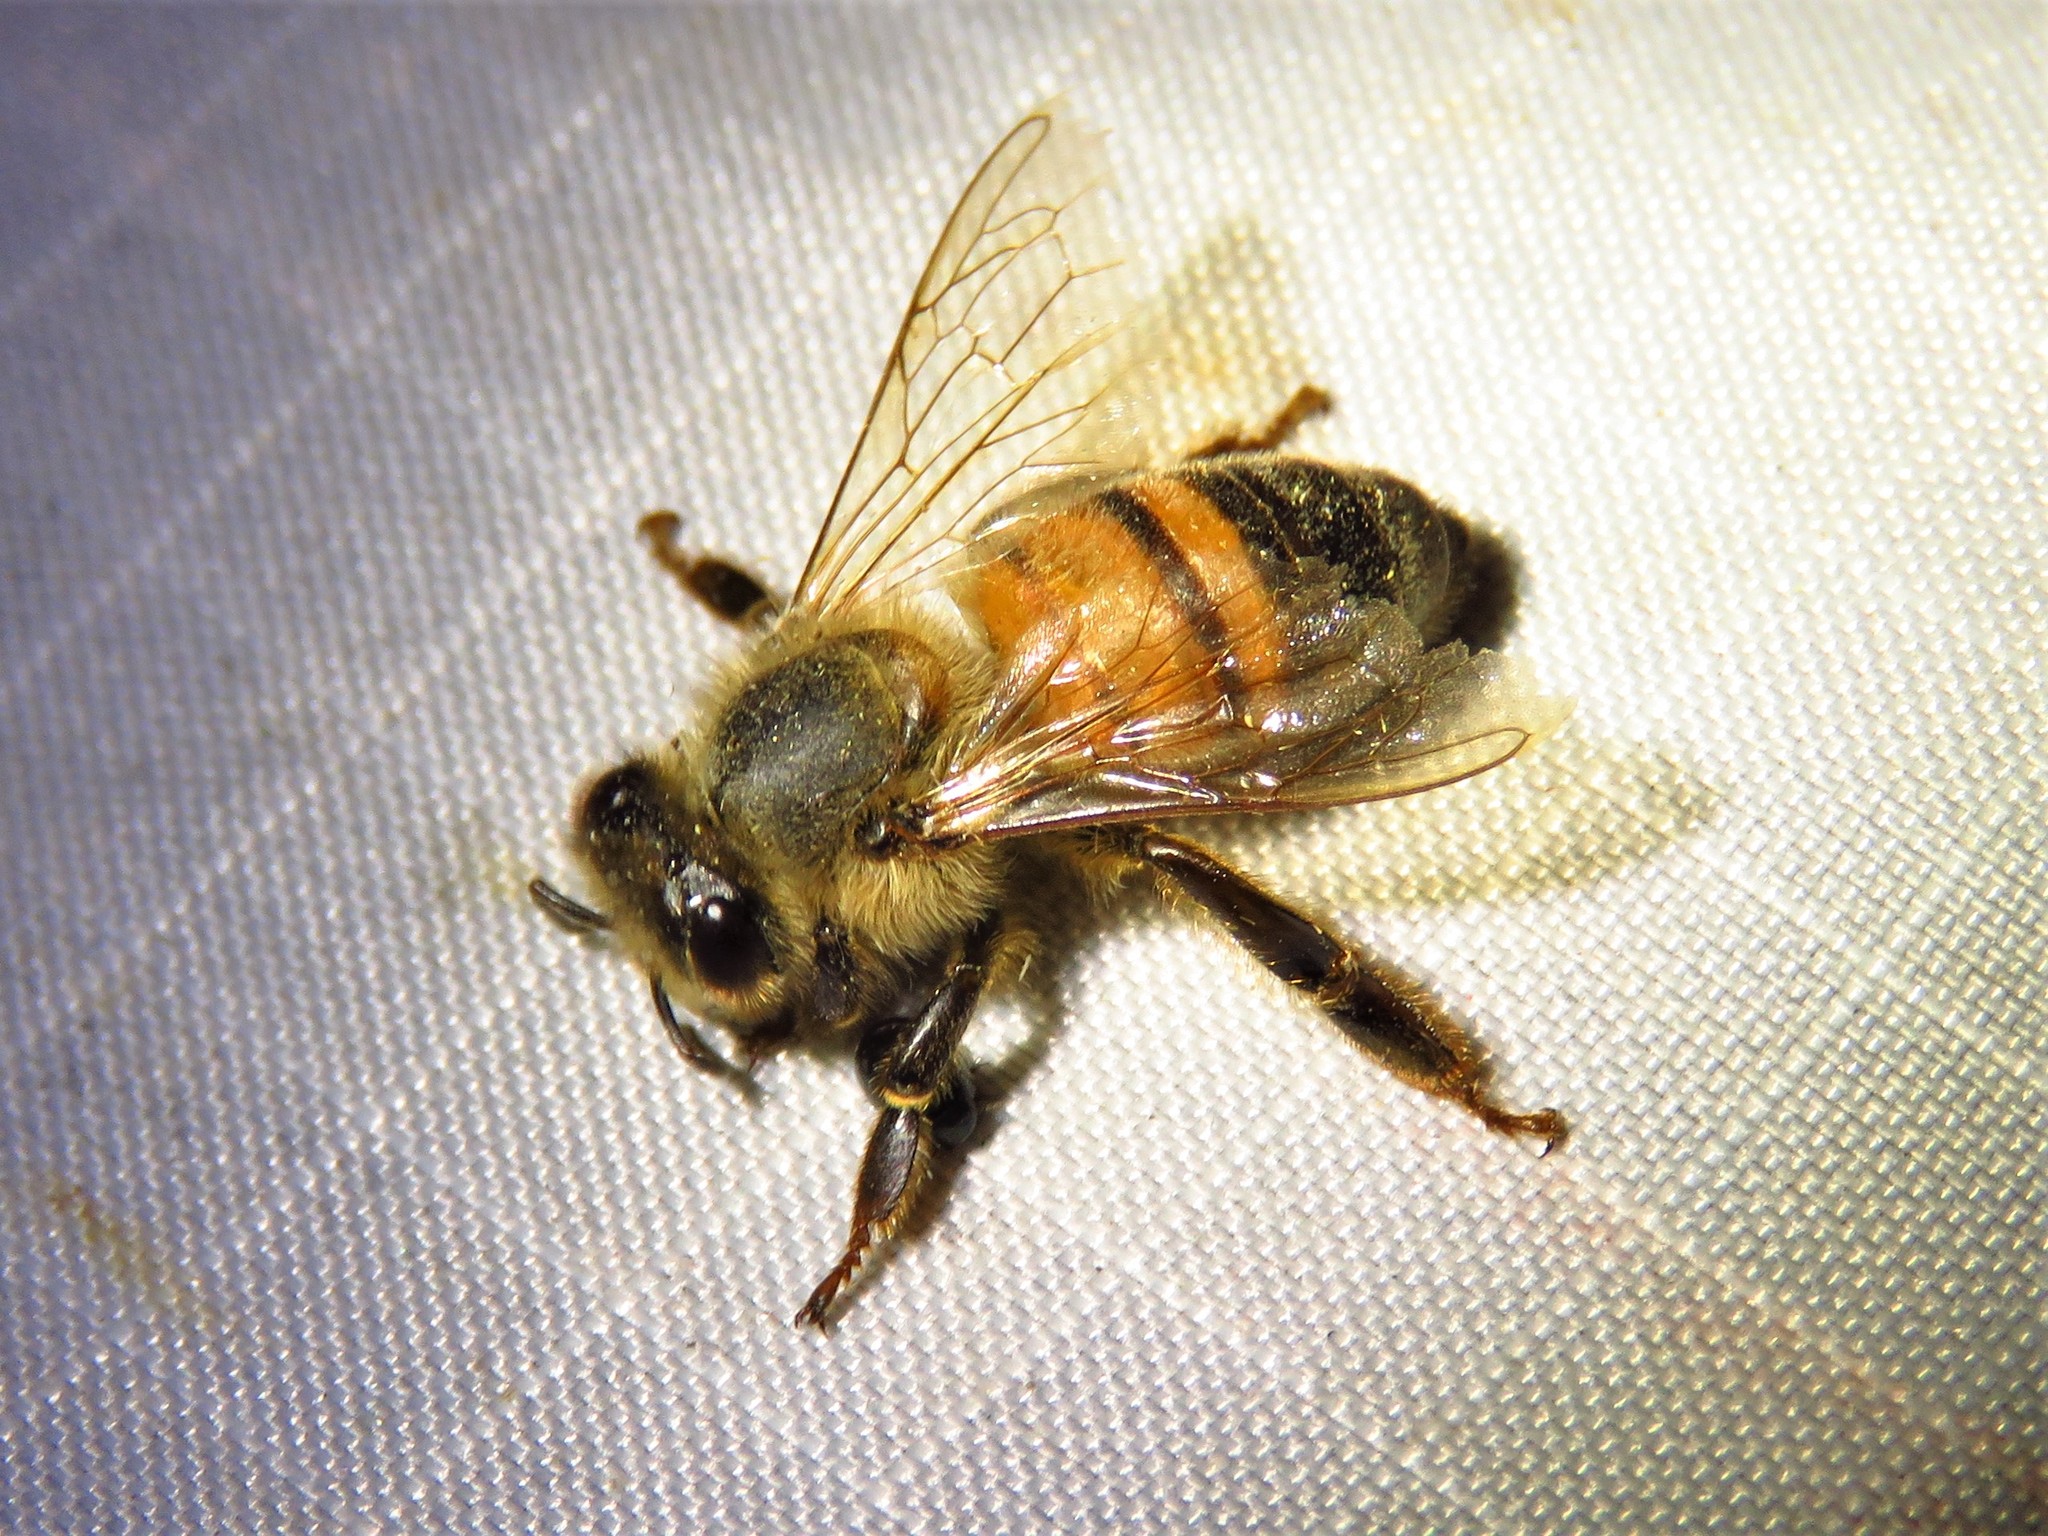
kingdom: Animalia
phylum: Arthropoda
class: Insecta
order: Hymenoptera
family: Apidae
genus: Apis
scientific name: Apis mellifera
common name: Honey bee
